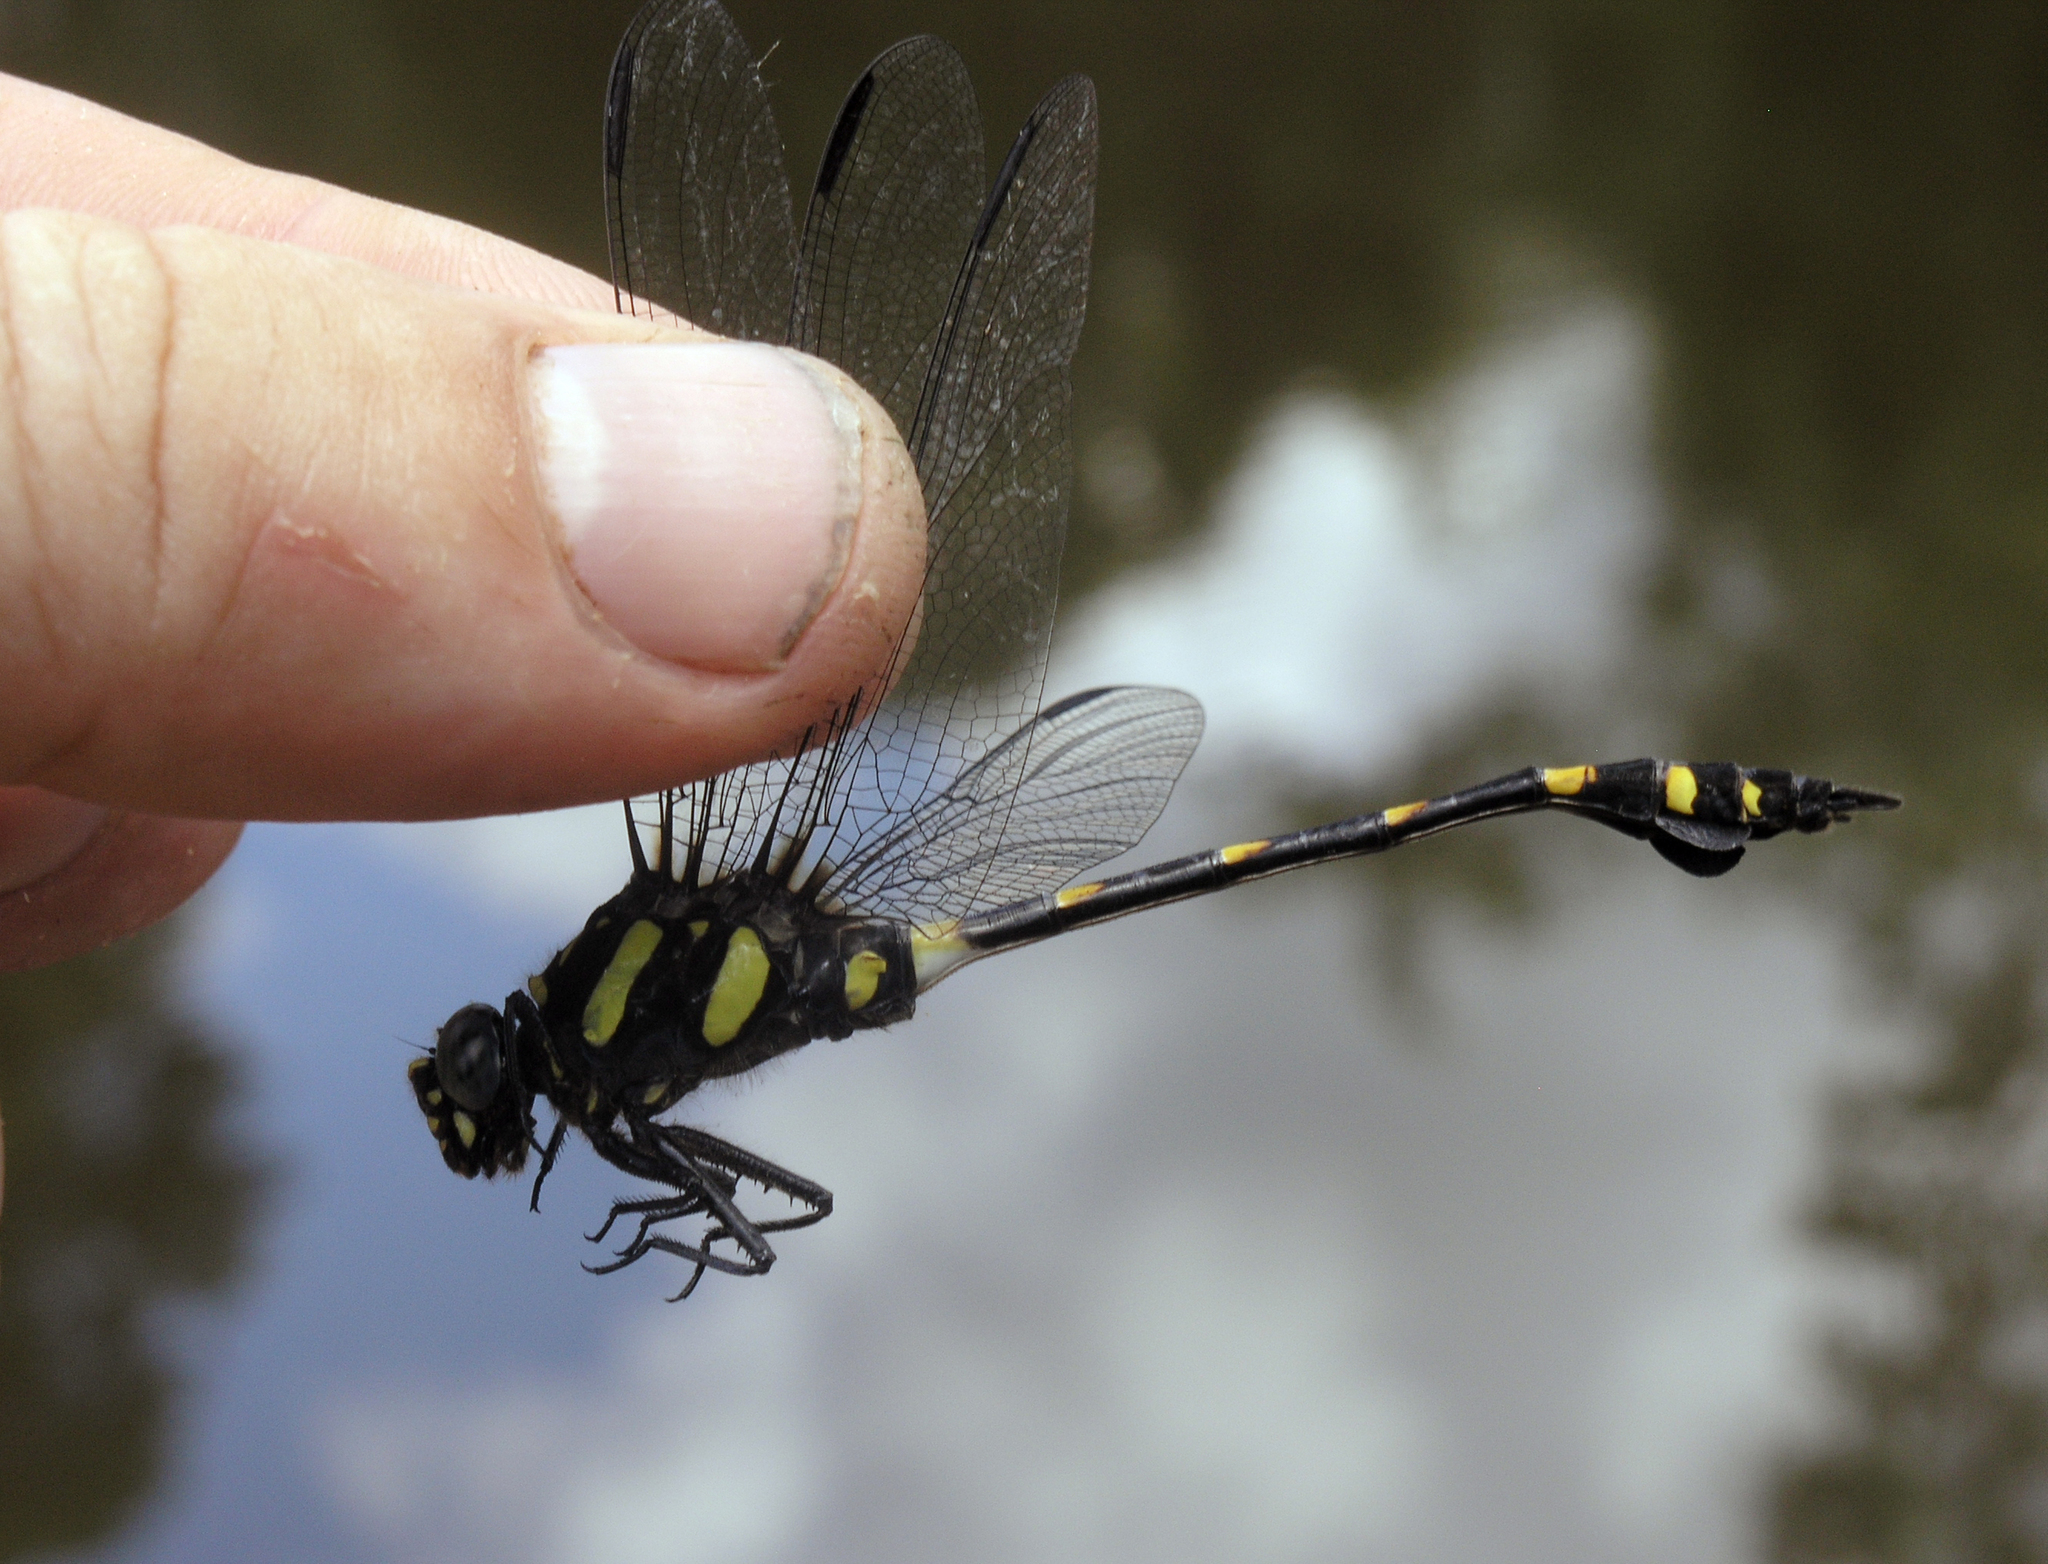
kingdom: Animalia
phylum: Arthropoda
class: Insecta
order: Odonata
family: Gomphidae
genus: Ictinogomphus
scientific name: Ictinogomphus decoratus
